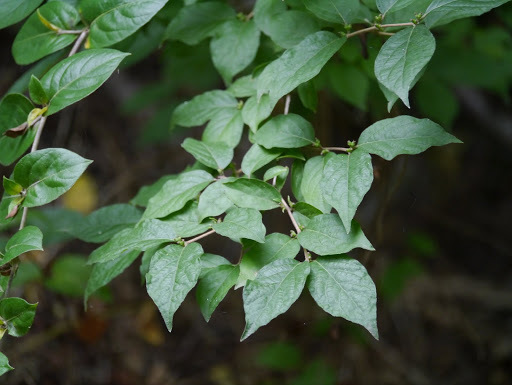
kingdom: Plantae
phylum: Tracheophyta
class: Magnoliopsida
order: Dipsacales
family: Caprifoliaceae
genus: Lonicera
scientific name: Lonicera maackii
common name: Amur honeysuckle
